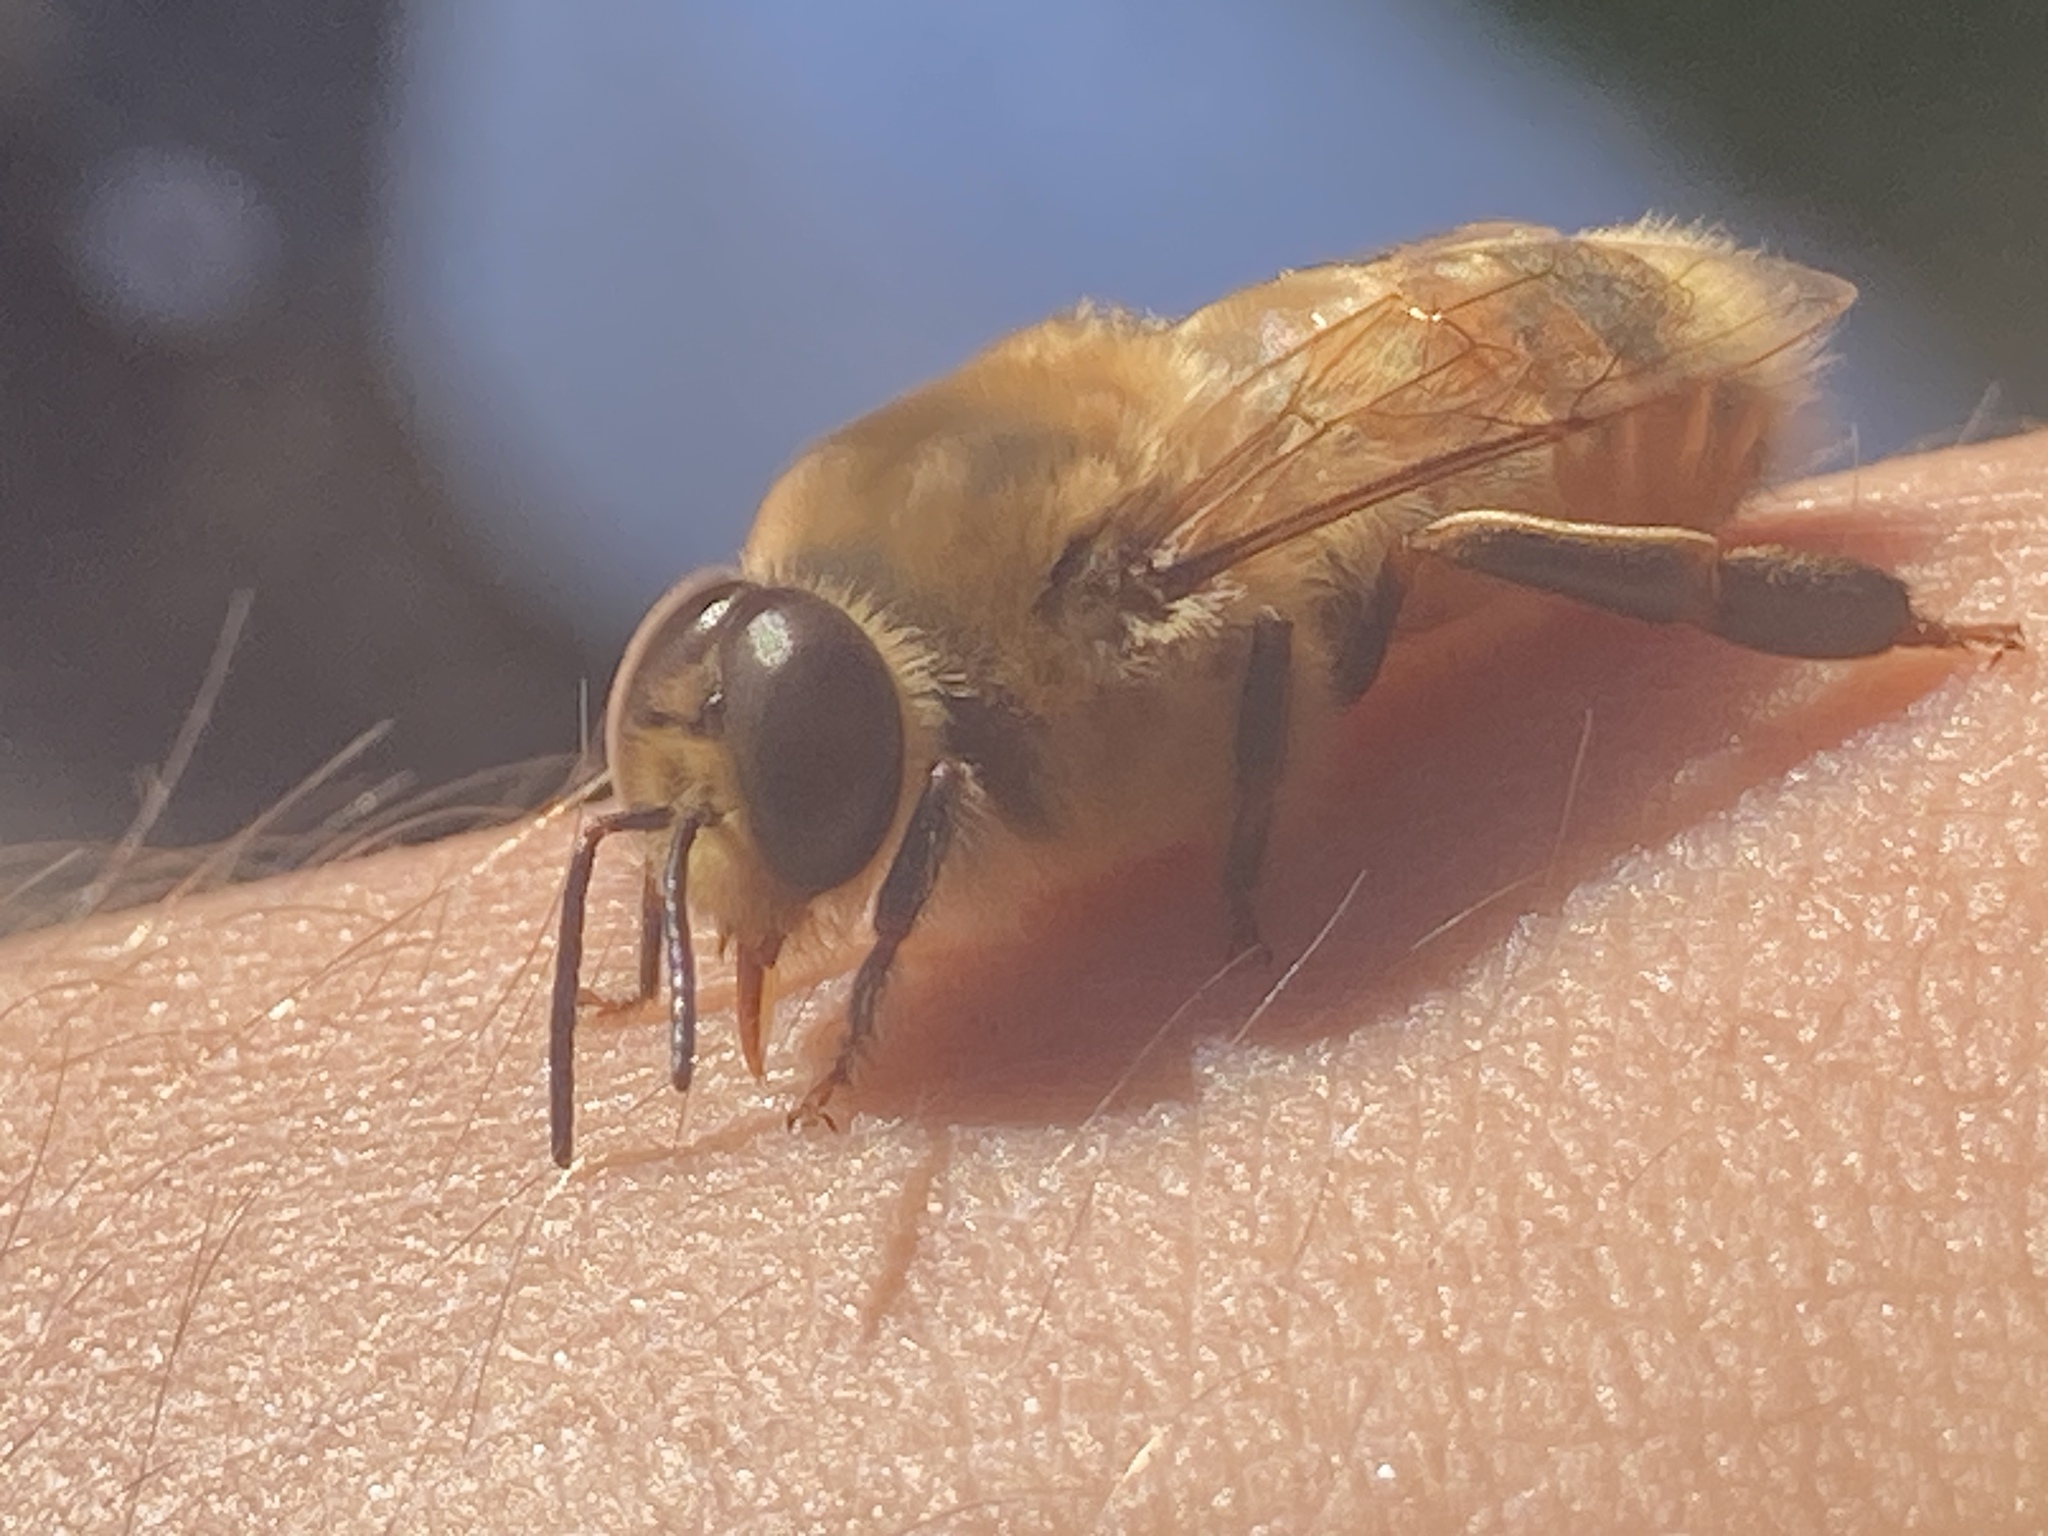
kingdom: Animalia
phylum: Arthropoda
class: Insecta
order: Hymenoptera
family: Apidae
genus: Apis
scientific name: Apis mellifera
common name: Honey bee
